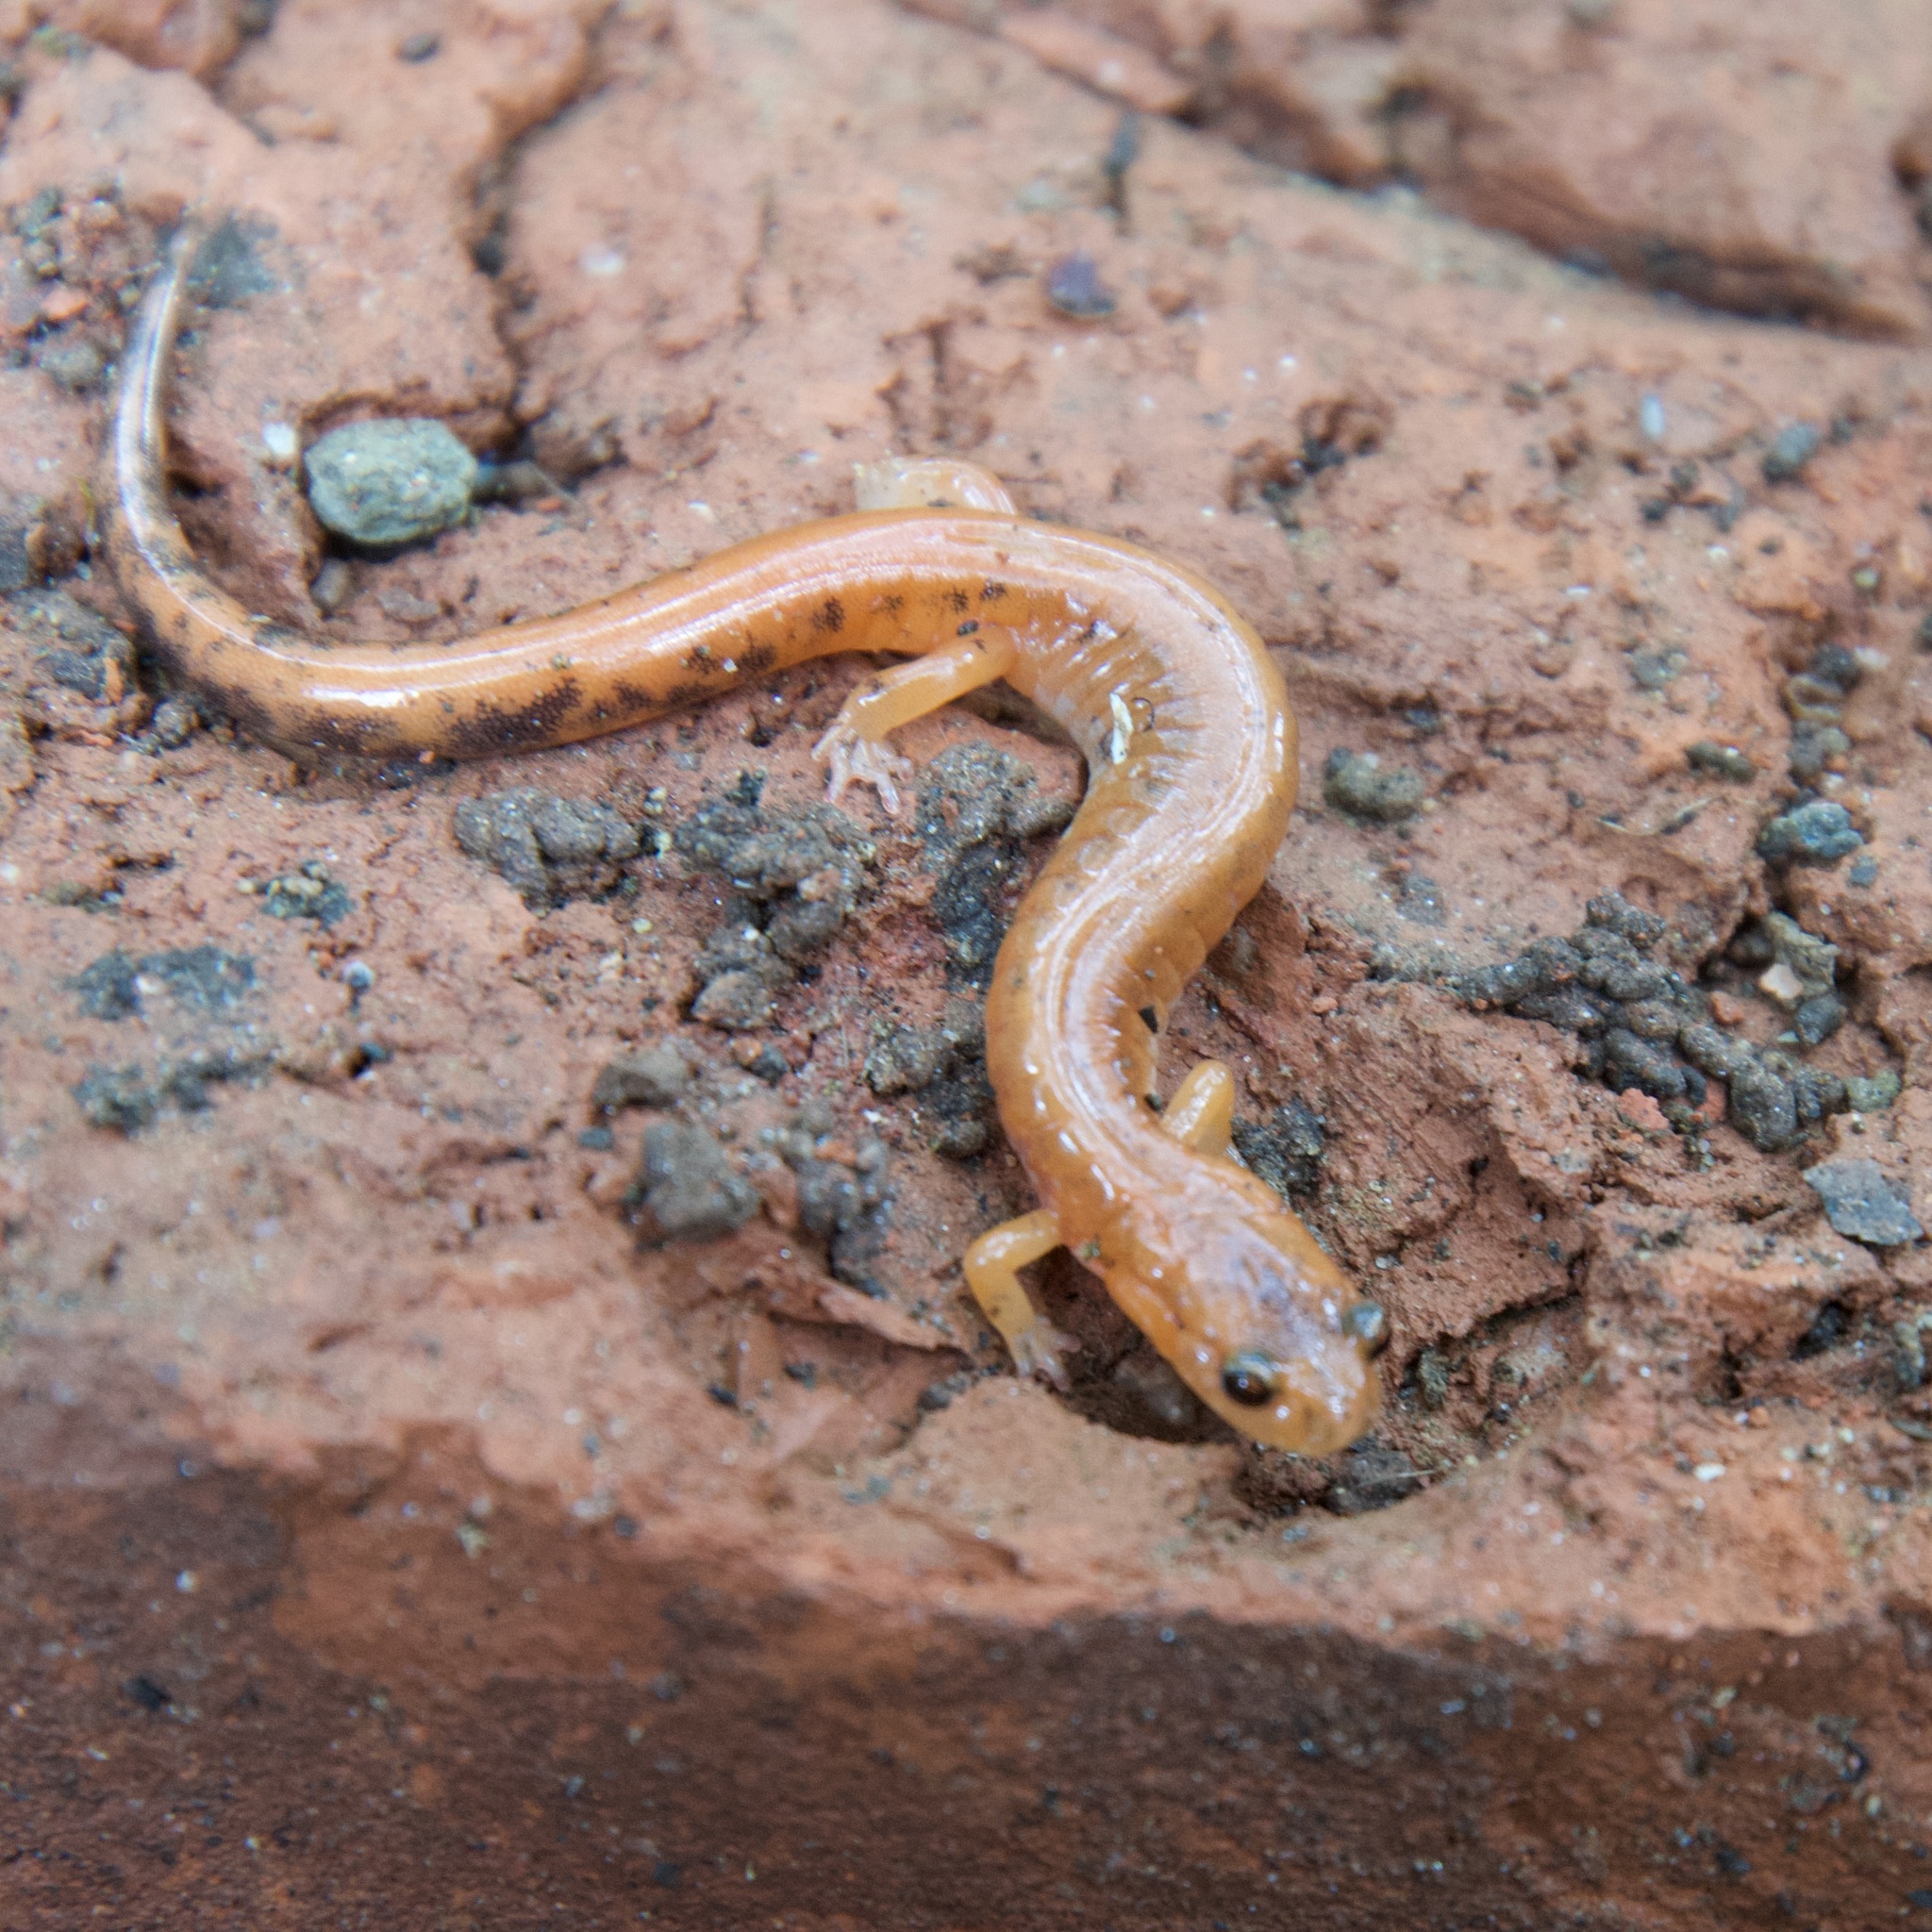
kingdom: Animalia
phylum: Chordata
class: Amphibia
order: Caudata
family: Plethodontidae
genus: Plethodon
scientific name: Plethodon cinereus
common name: Redback salamander
